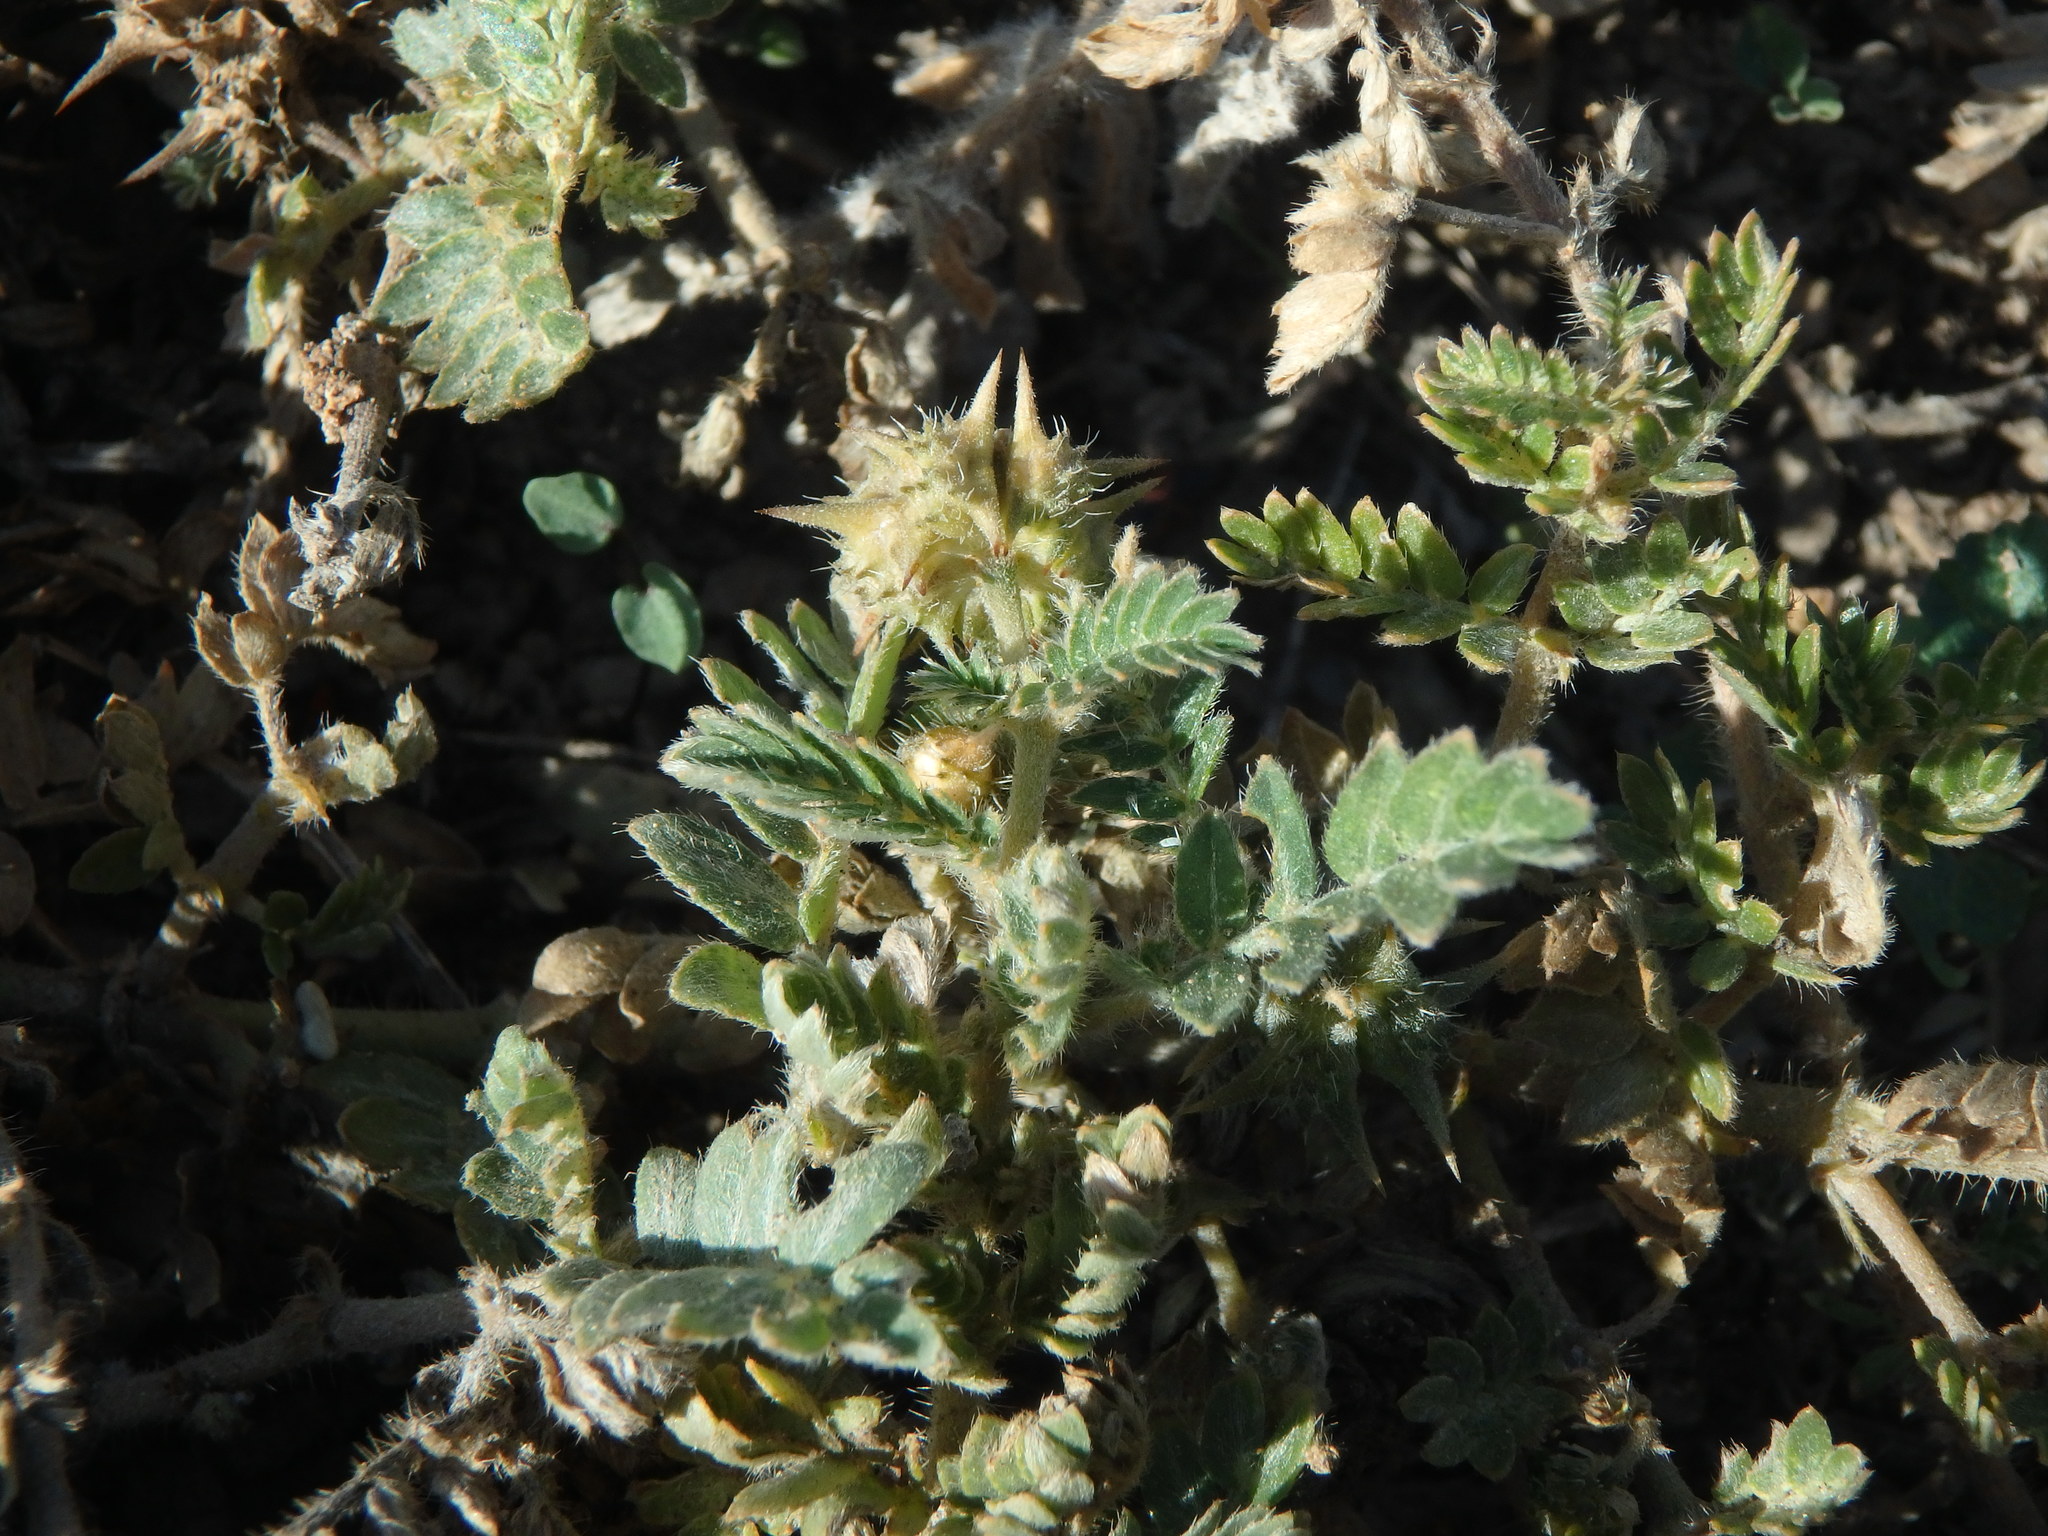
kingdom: Plantae
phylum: Tracheophyta
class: Magnoliopsida
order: Zygophyllales
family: Zygophyllaceae
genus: Tribulus
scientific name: Tribulus terrestris
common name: Puncturevine
